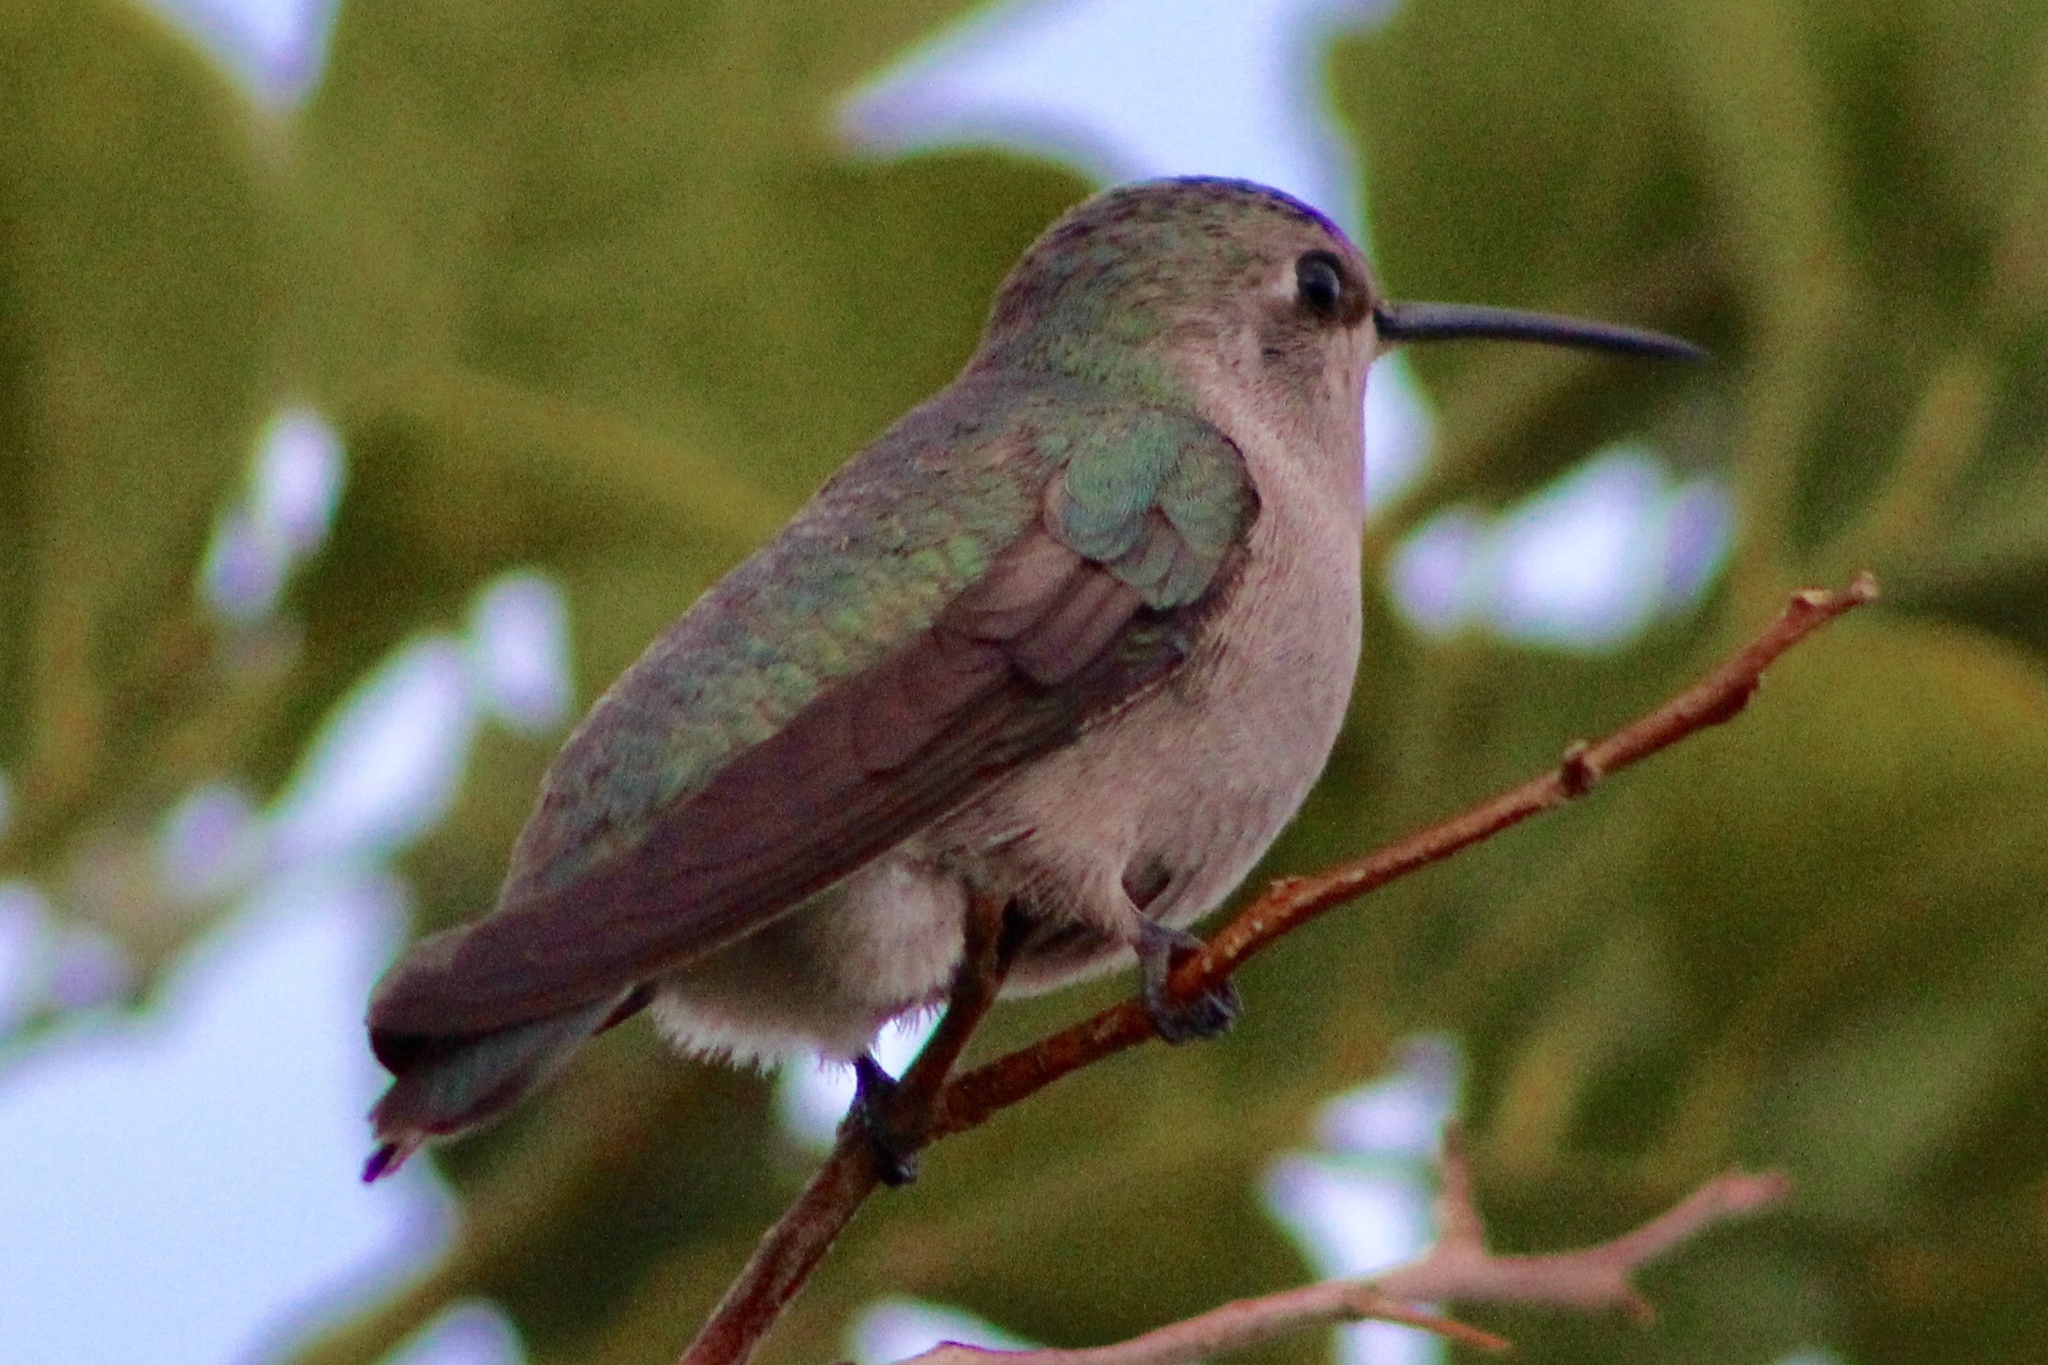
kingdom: Animalia
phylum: Chordata
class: Aves
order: Apodiformes
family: Trochilidae
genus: Calypte
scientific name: Calypte costae
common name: Costa's hummingbird
